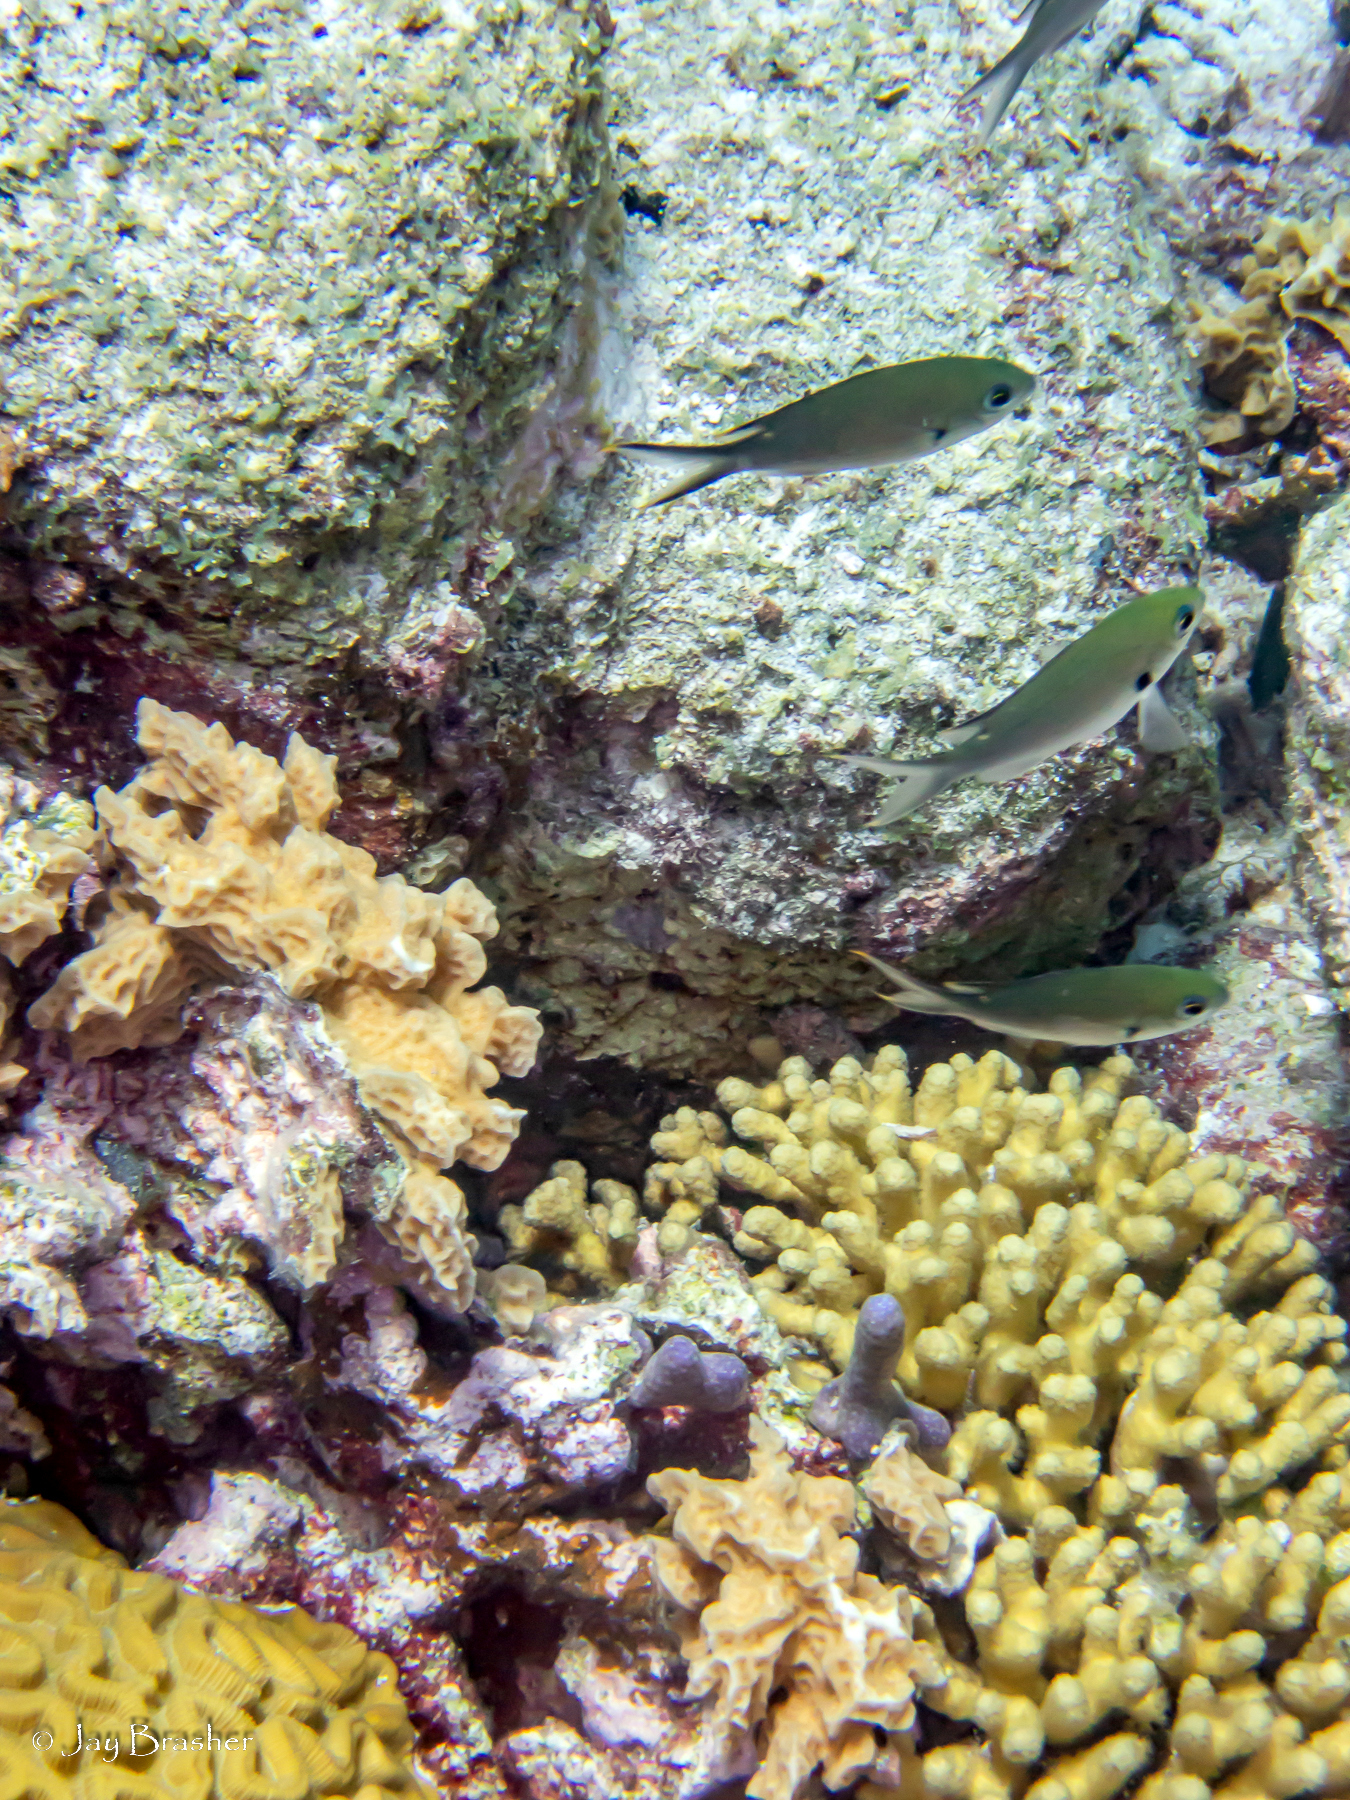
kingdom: Animalia
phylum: Chordata
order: Perciformes
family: Pomacentridae
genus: Chromis
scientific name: Chromis multilineata
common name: Brown chromis
